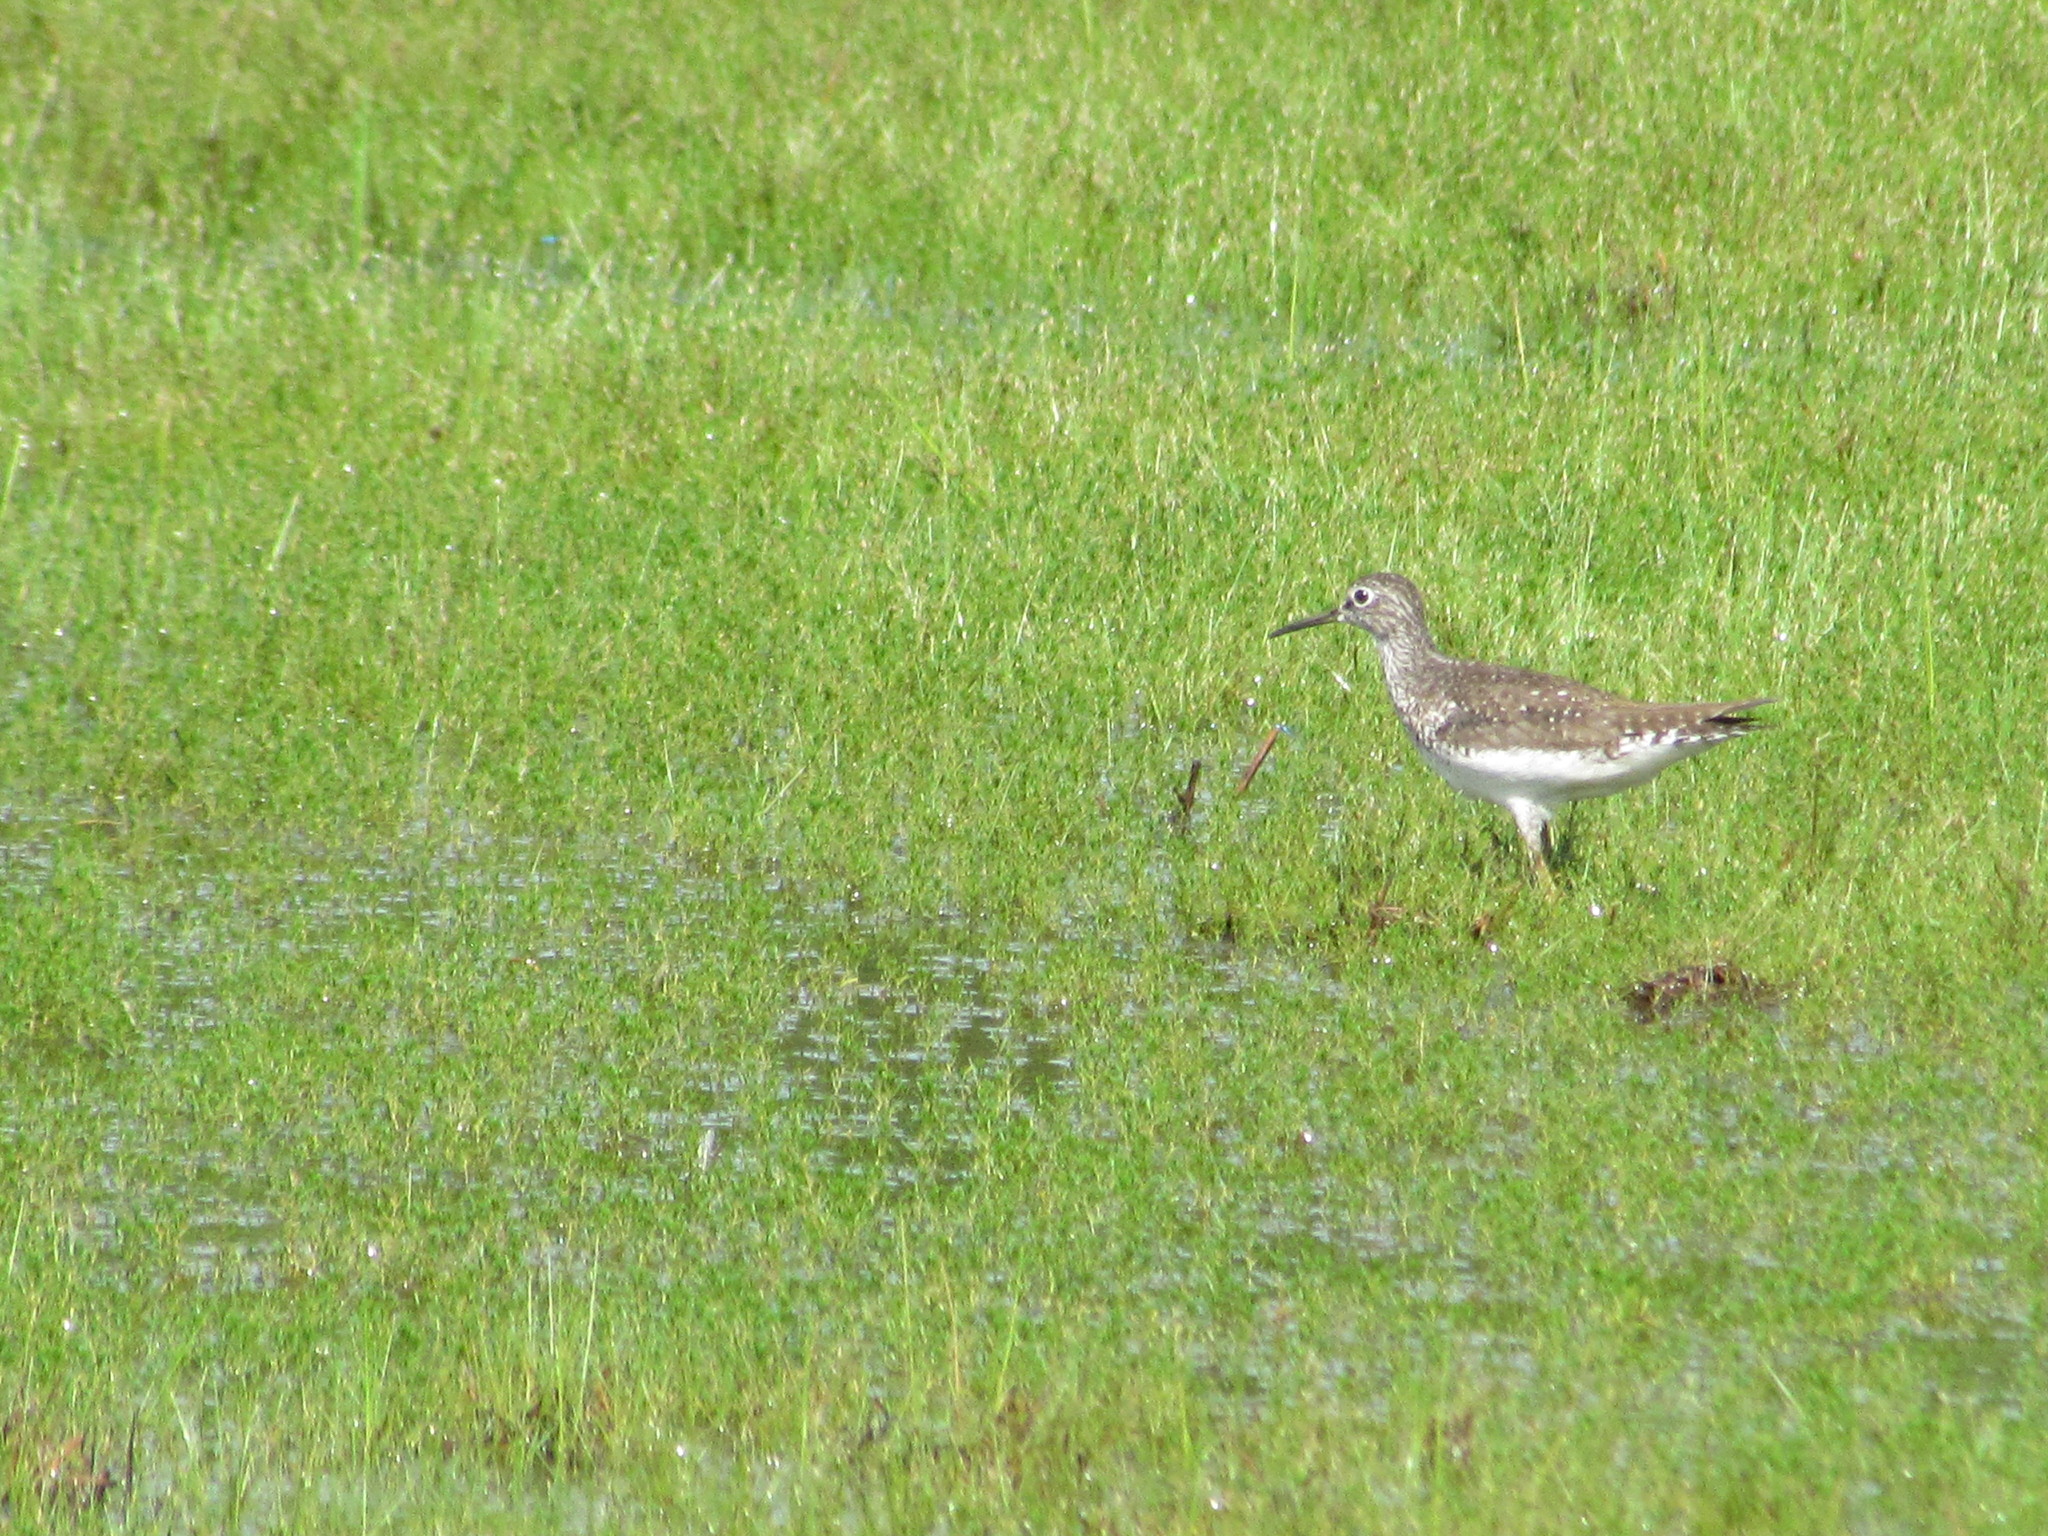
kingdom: Animalia
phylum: Chordata
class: Aves
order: Charadriiformes
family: Scolopacidae
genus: Tringa
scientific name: Tringa solitaria
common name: Solitary sandpiper
